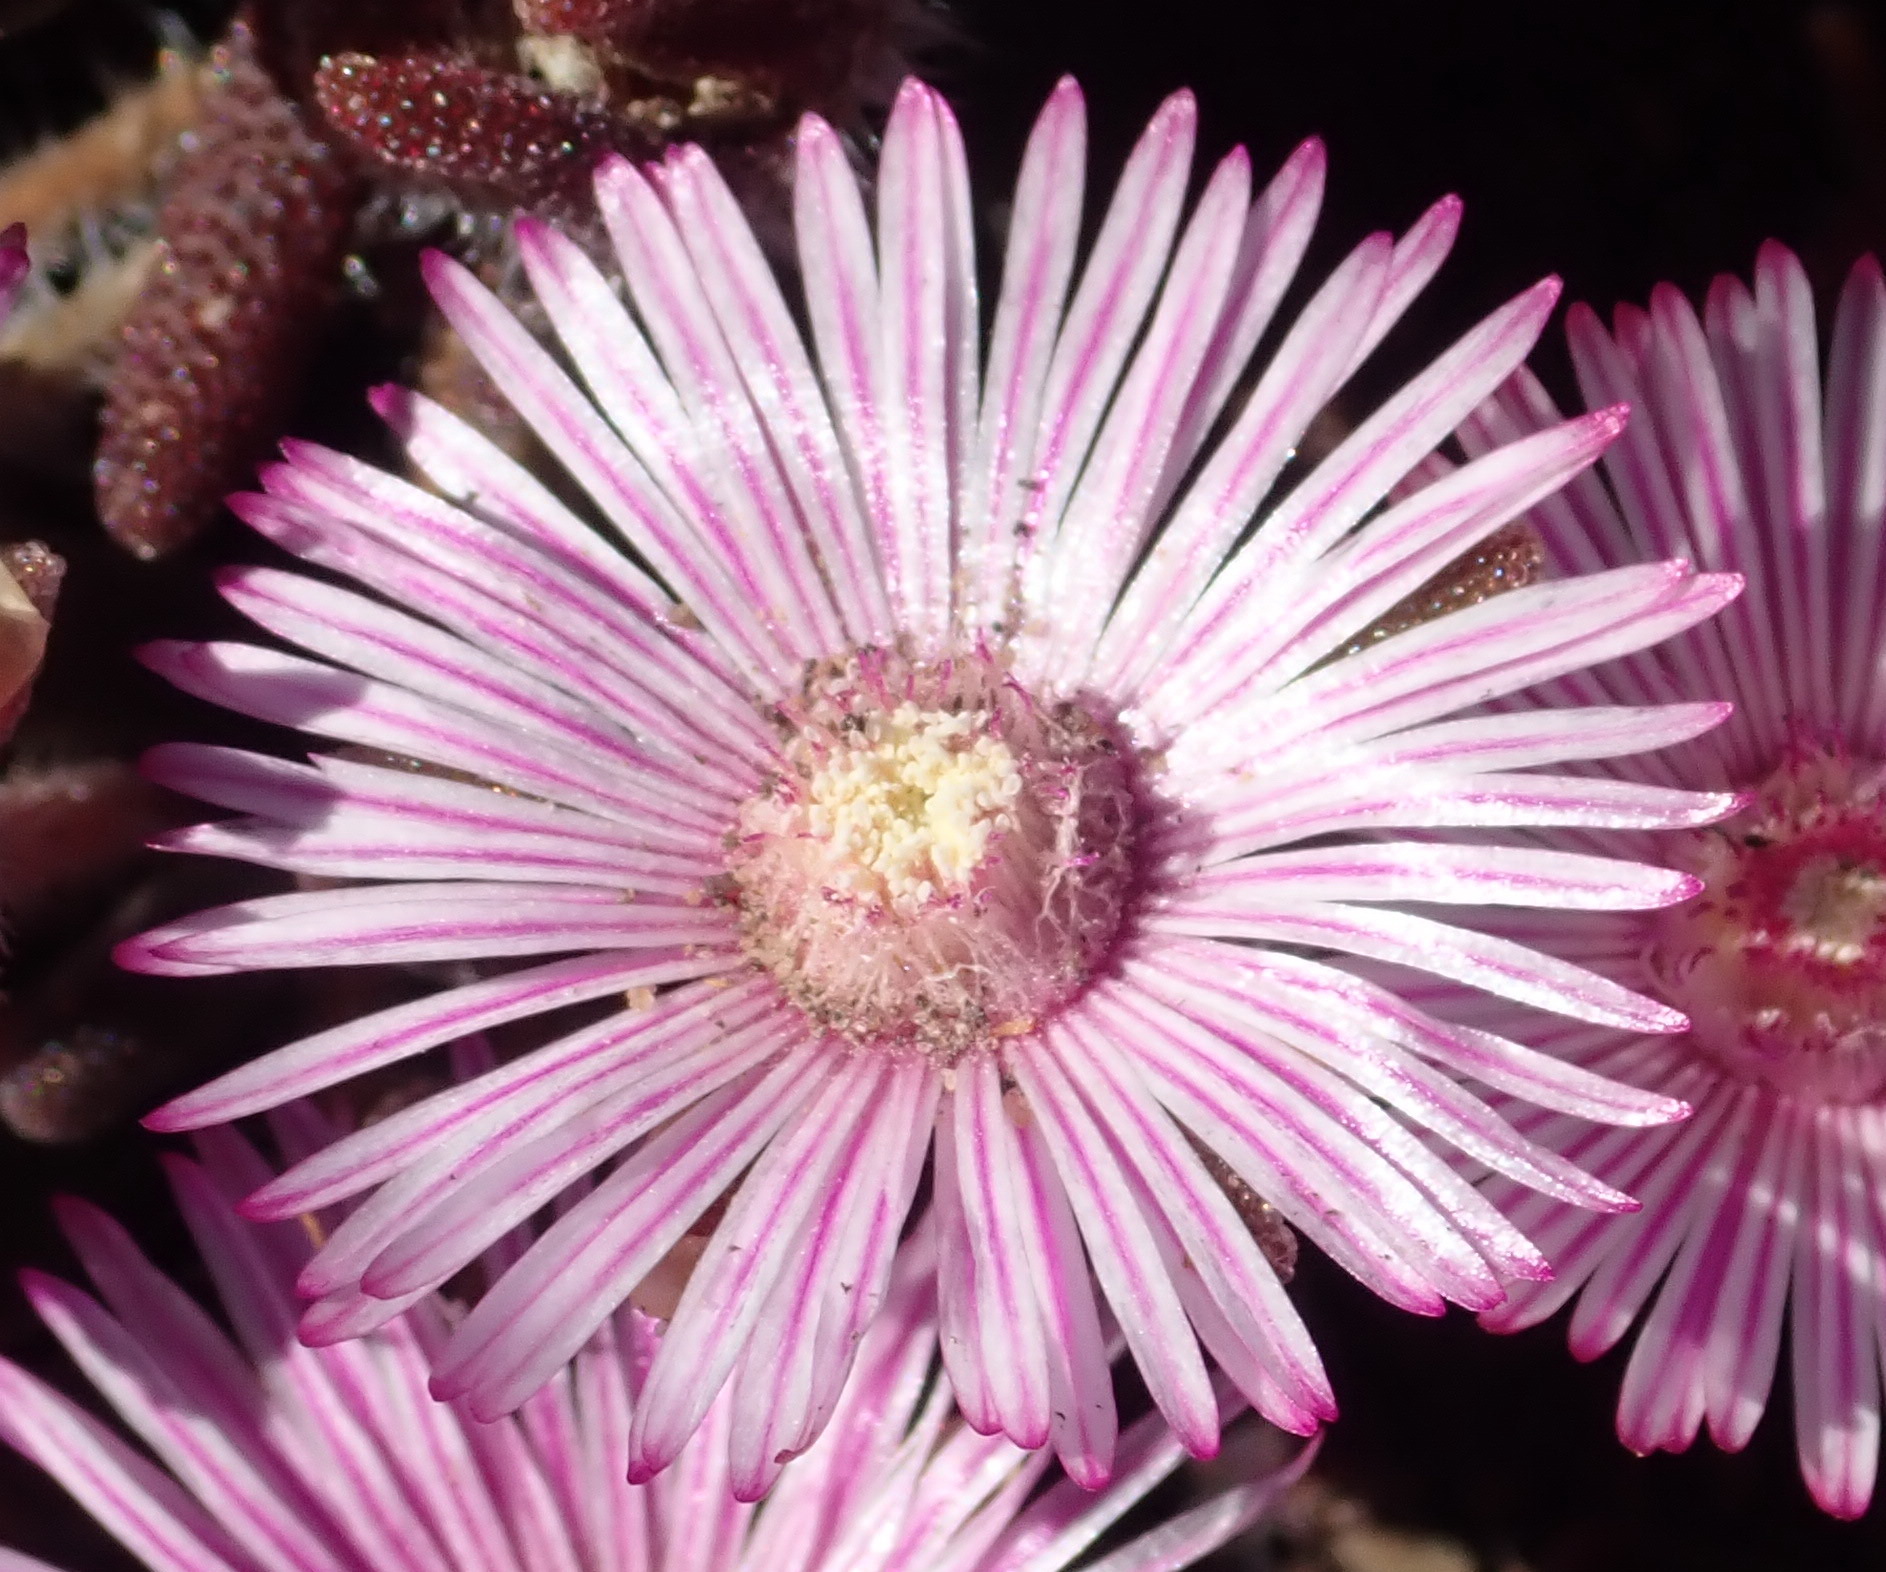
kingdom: Plantae
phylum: Tracheophyta
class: Magnoliopsida
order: Caryophyllales
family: Aizoaceae
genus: Drosanthemum
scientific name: Drosanthemum striatum
